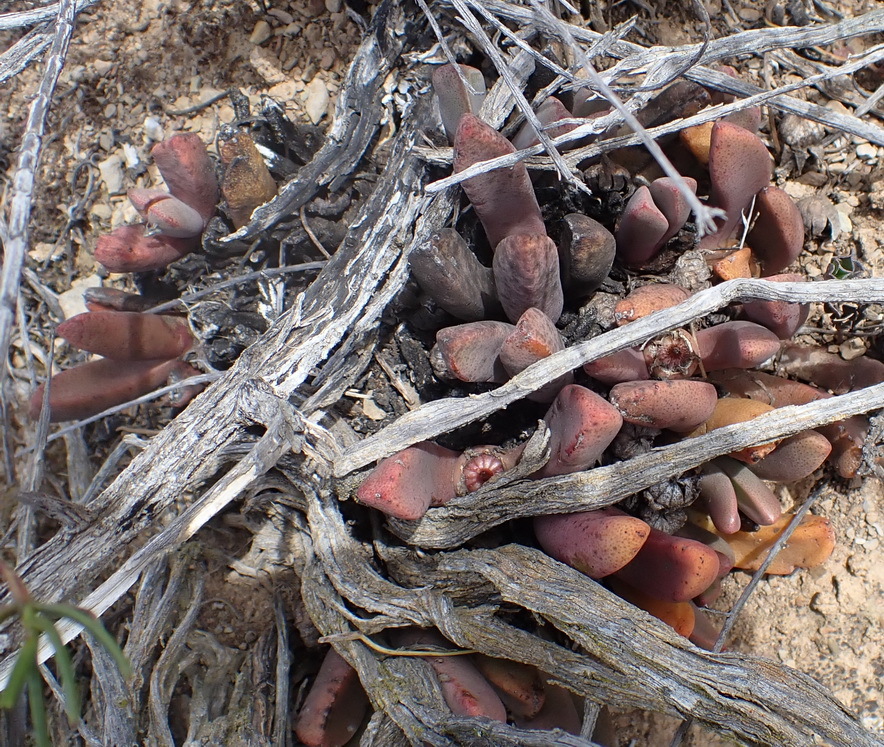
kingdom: Plantae
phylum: Tracheophyta
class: Magnoliopsida
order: Caryophyllales
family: Aizoaceae
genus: Pleiospilos
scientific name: Pleiospilos compactus
